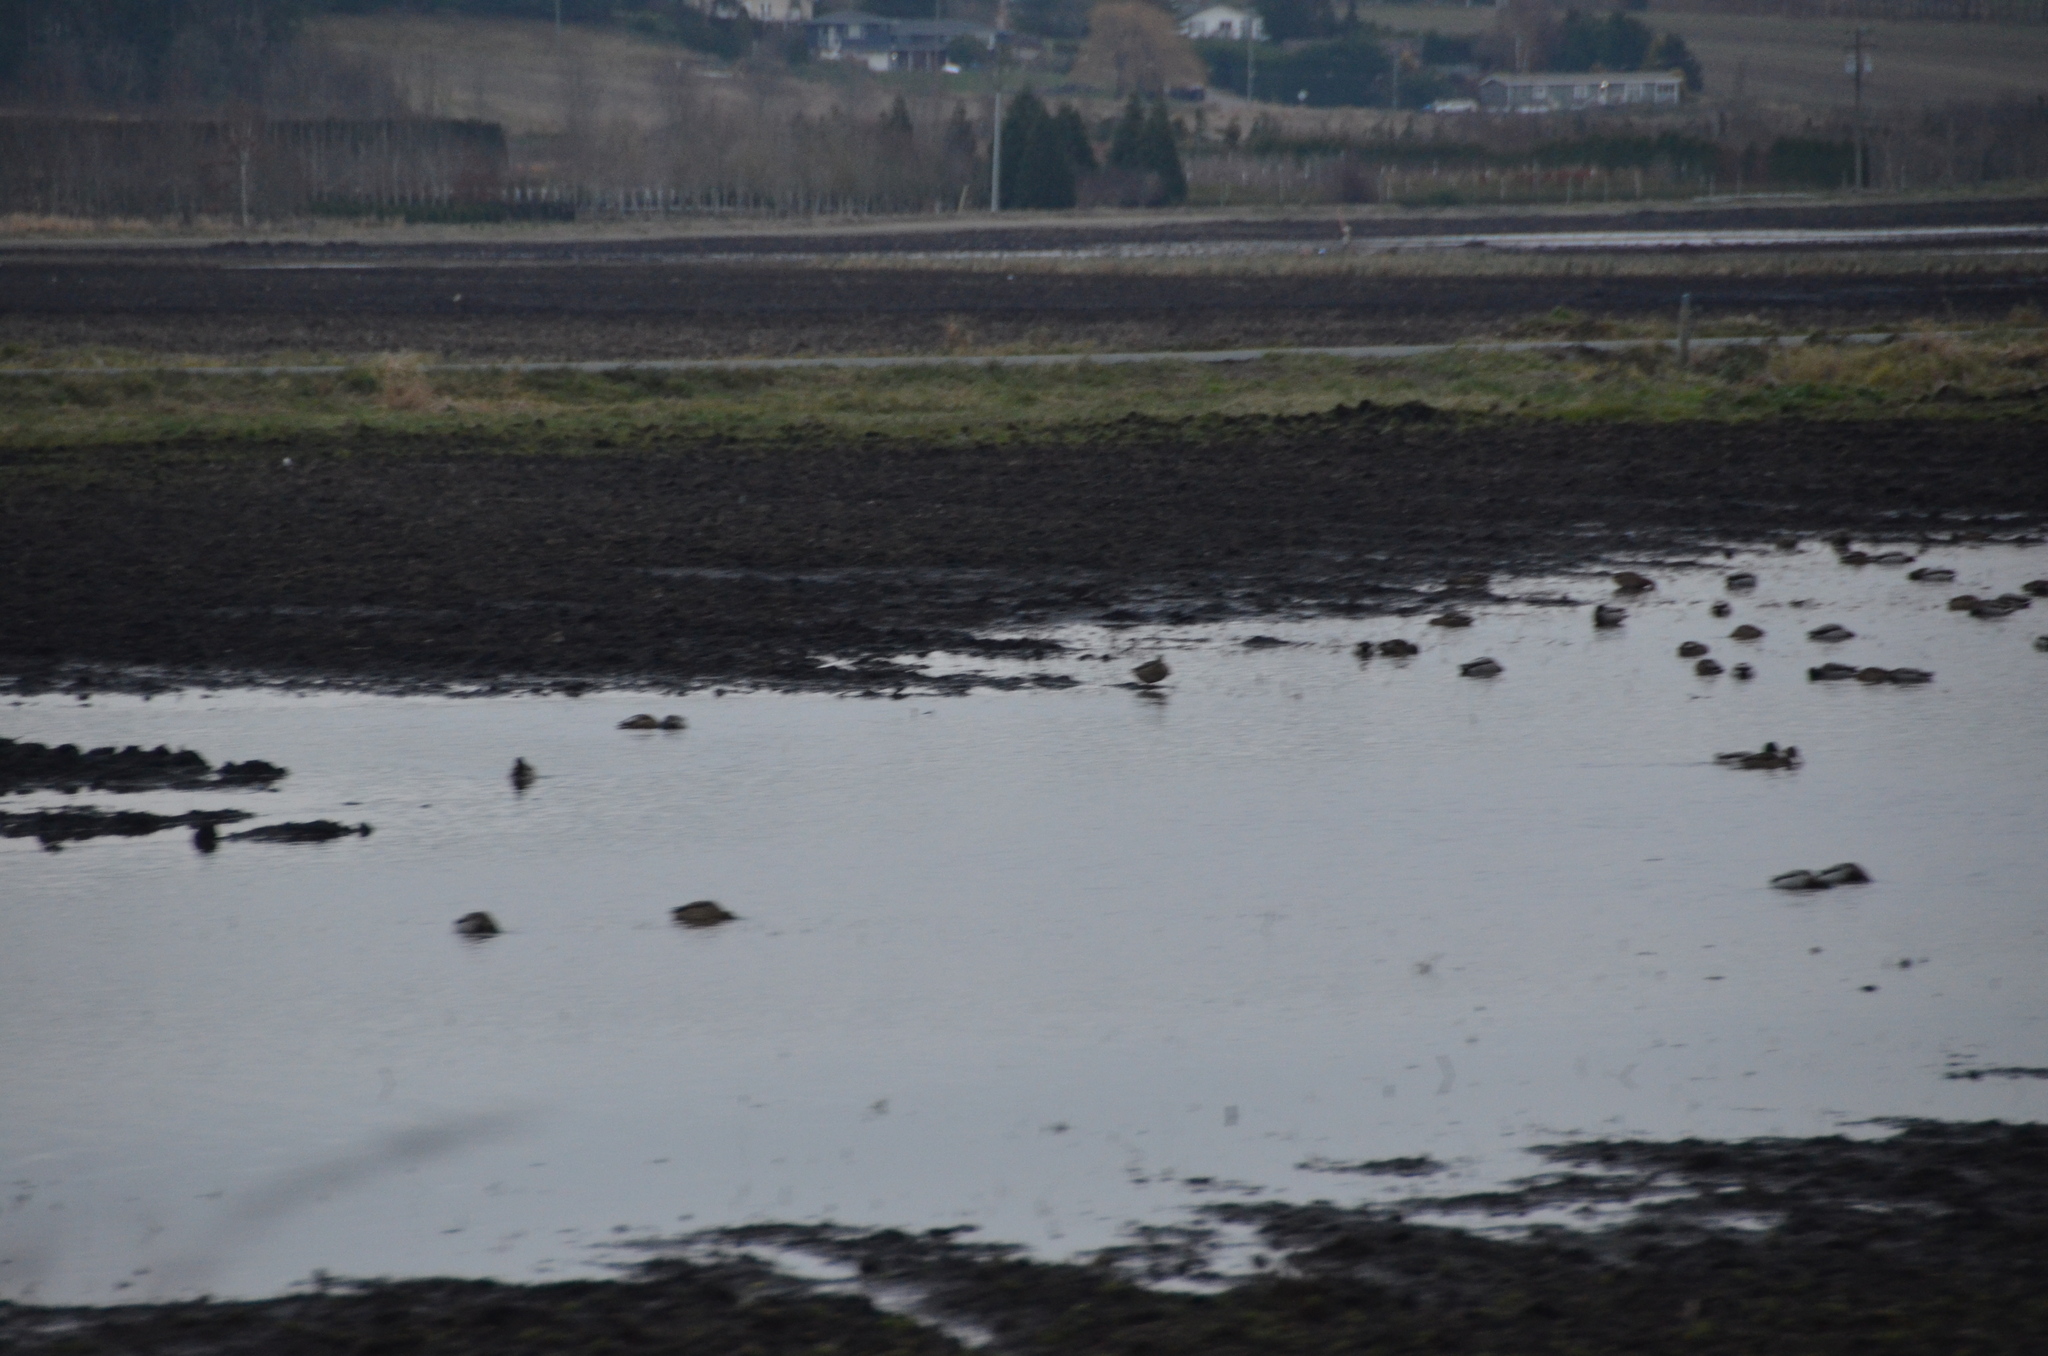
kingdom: Animalia
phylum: Chordata
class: Aves
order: Anseriformes
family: Anatidae
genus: Anas
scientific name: Anas platyrhynchos
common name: Mallard
